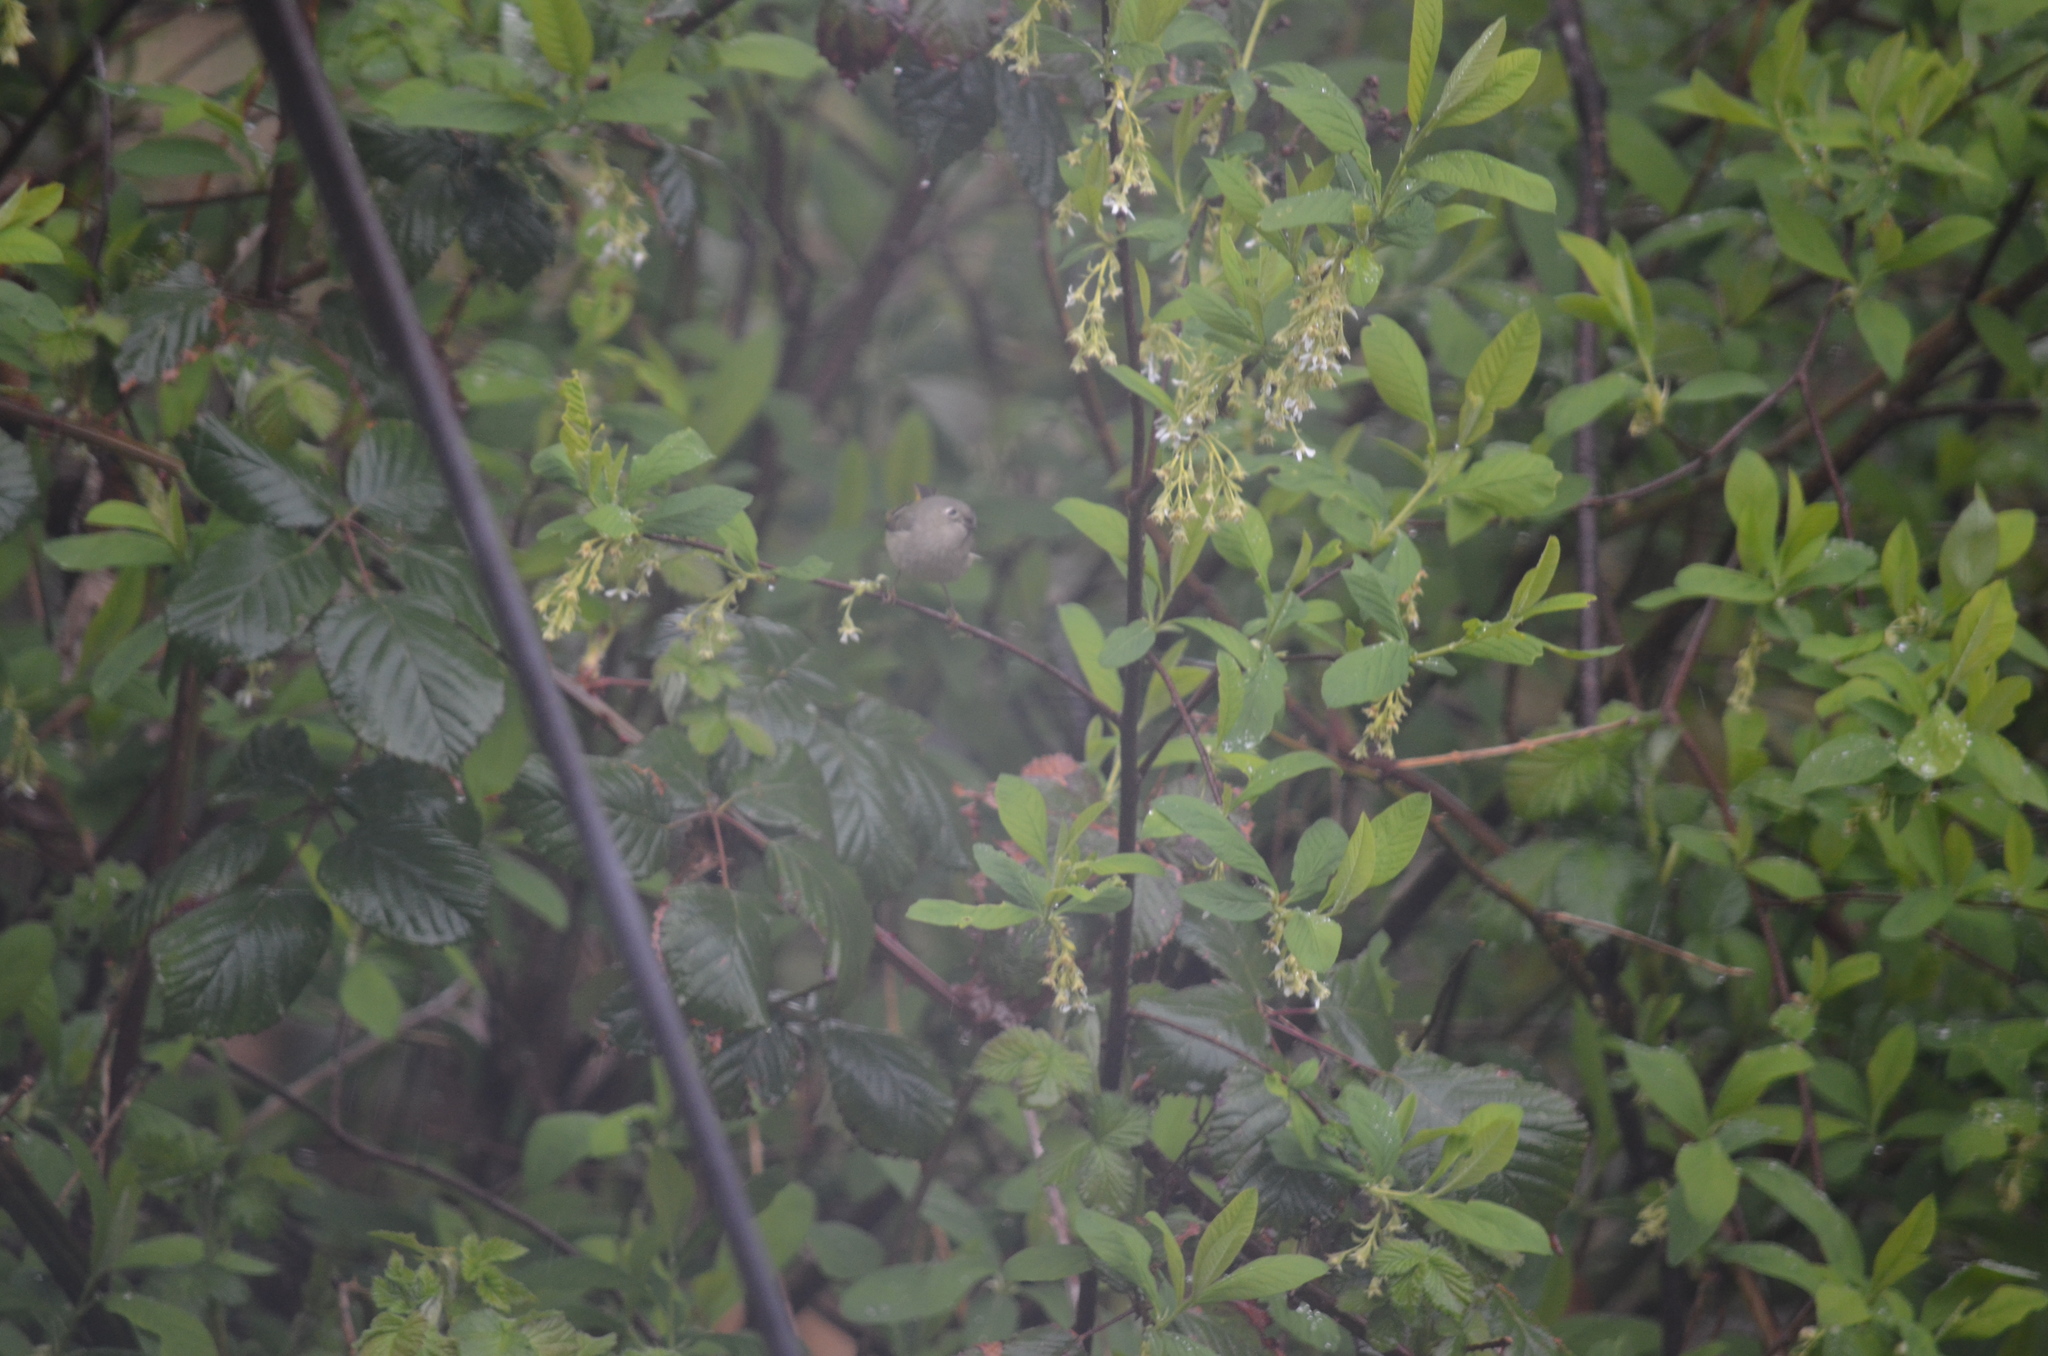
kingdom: Animalia
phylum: Chordata
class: Aves
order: Passeriformes
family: Regulidae
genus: Regulus
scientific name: Regulus calendula
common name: Ruby-crowned kinglet
